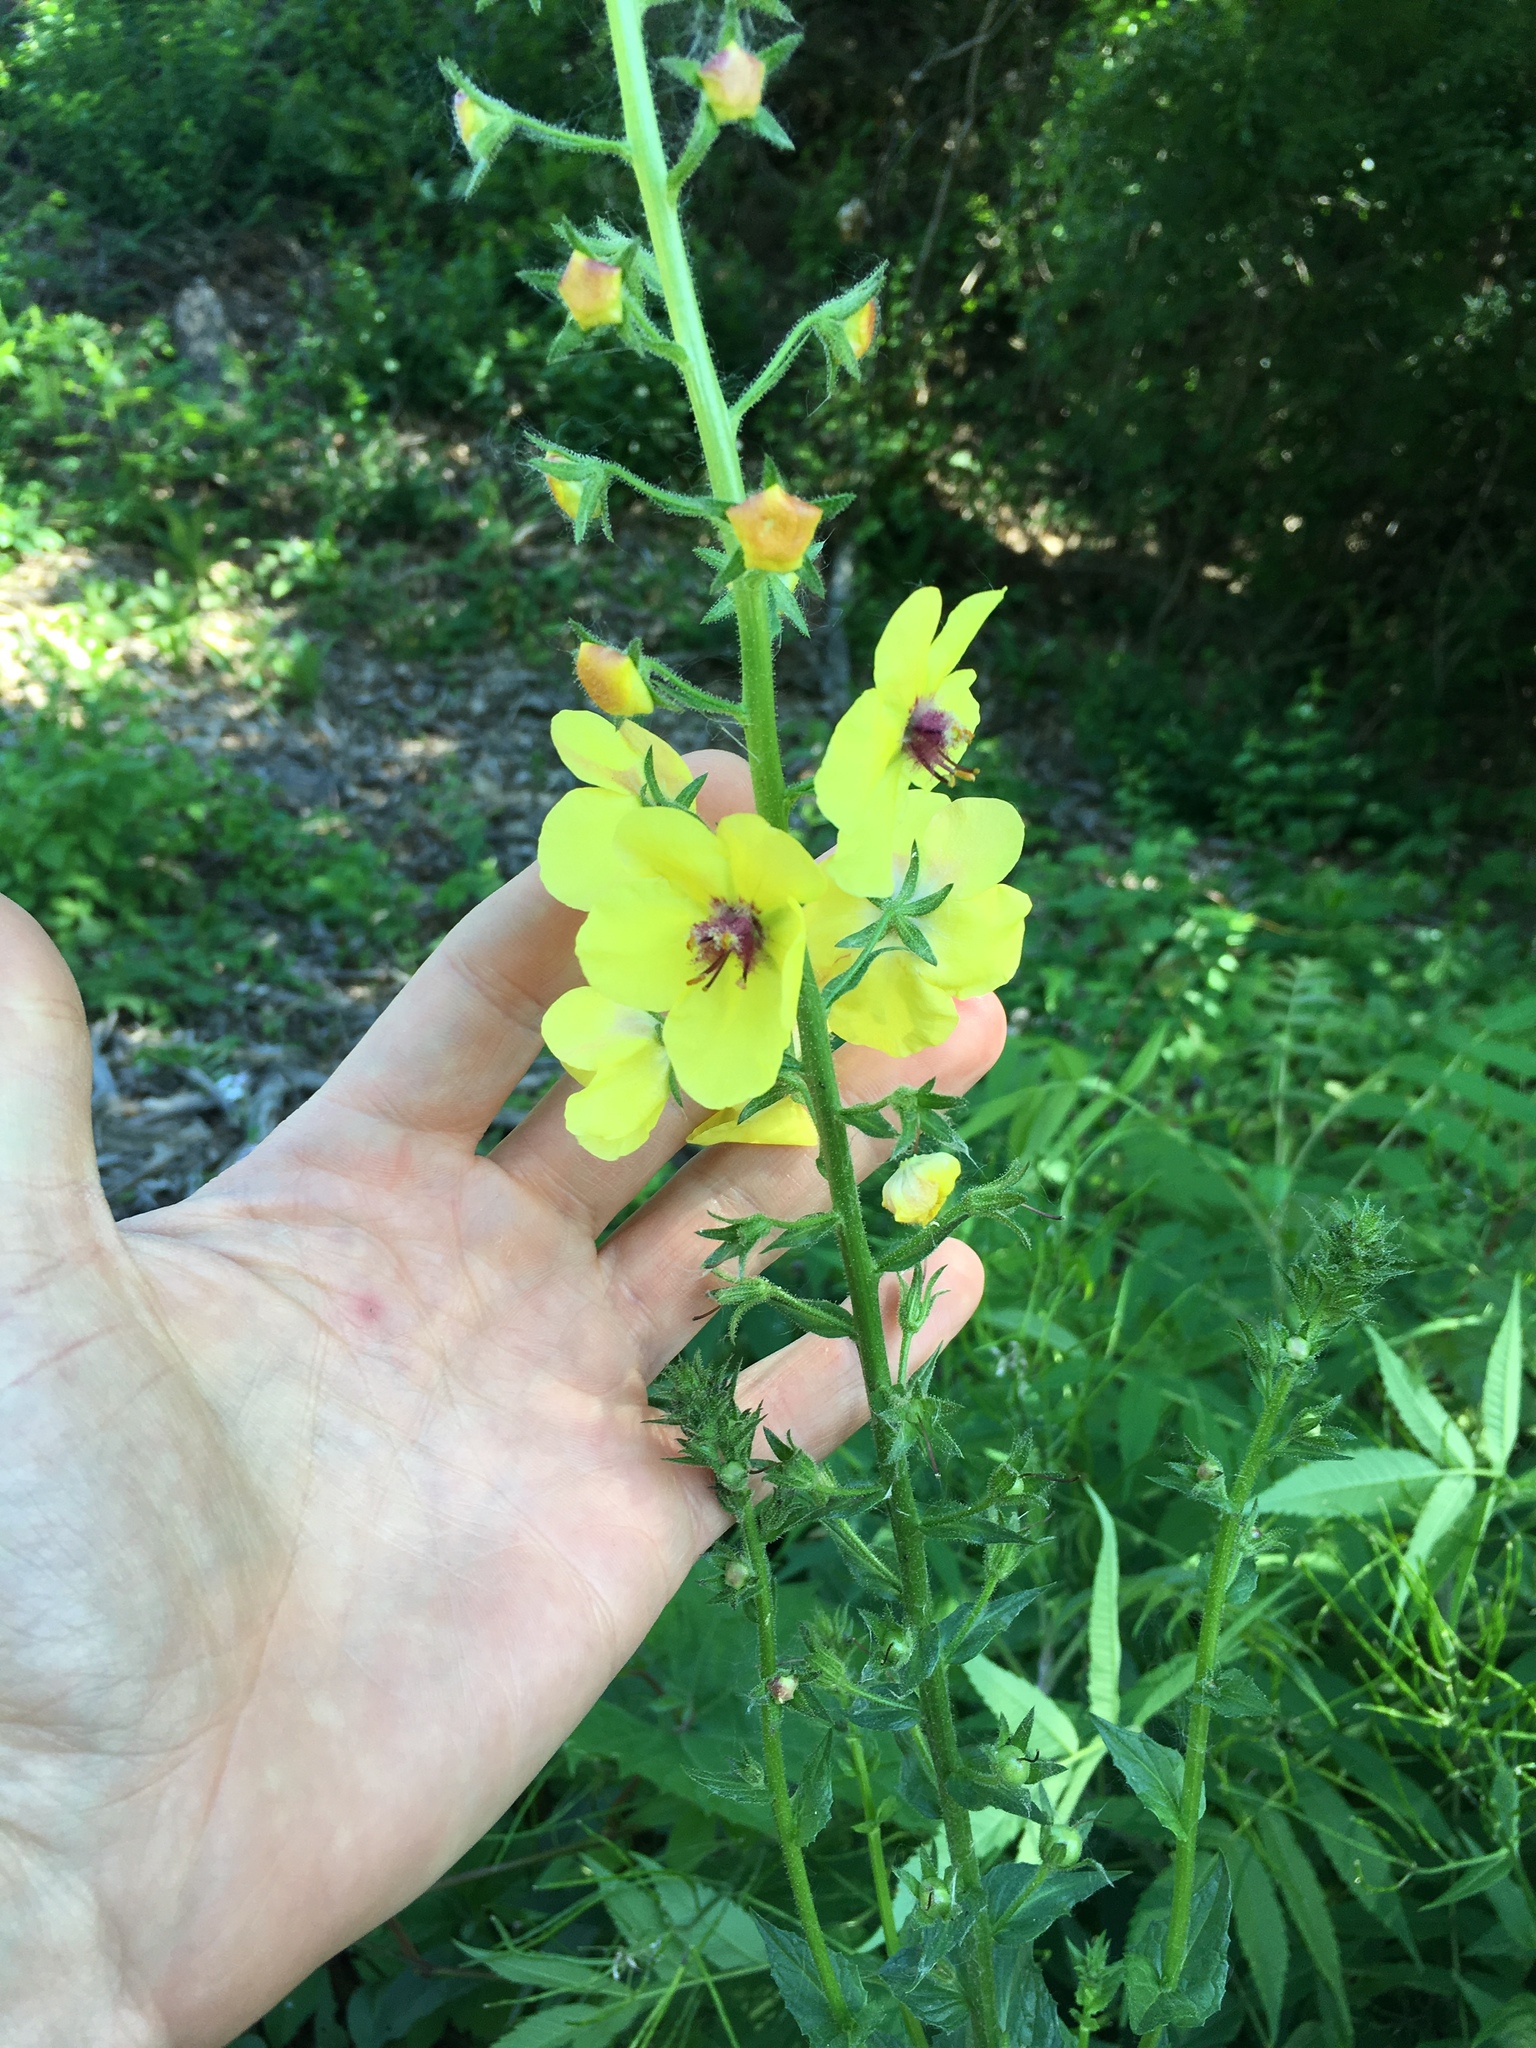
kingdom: Plantae
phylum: Tracheophyta
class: Magnoliopsida
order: Lamiales
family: Scrophulariaceae
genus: Verbascum
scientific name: Verbascum blattaria
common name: Moth mullein
